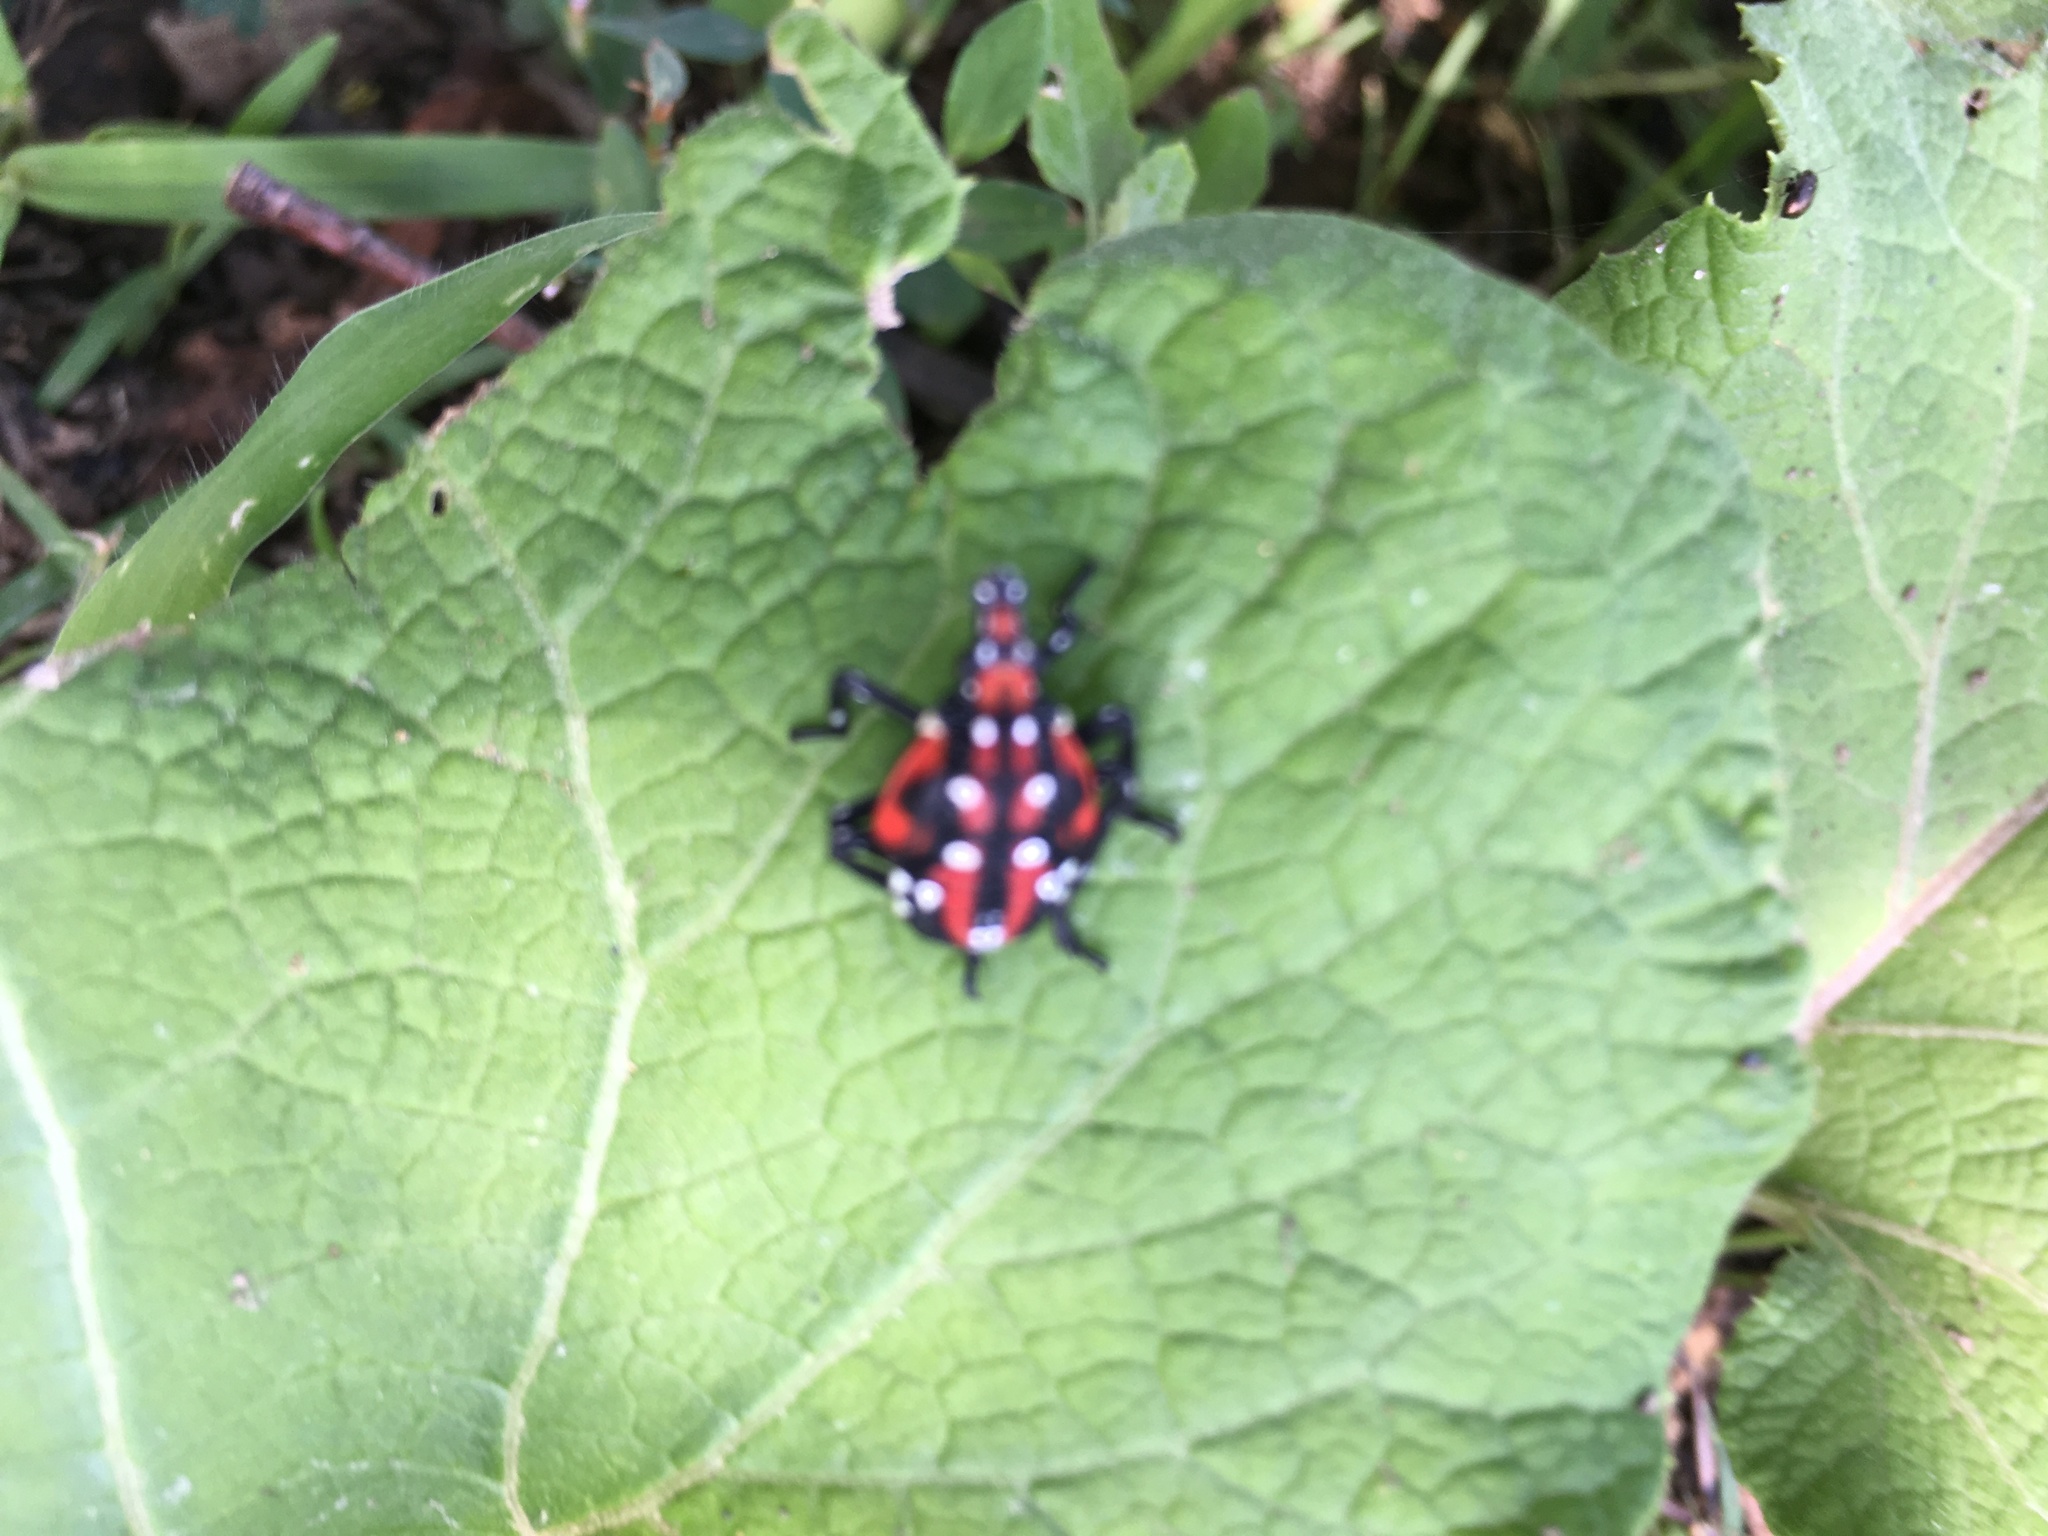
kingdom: Animalia
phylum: Arthropoda
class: Insecta
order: Hemiptera
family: Fulgoridae
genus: Lycorma
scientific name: Lycorma delicatula
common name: Spotted lanternfly
